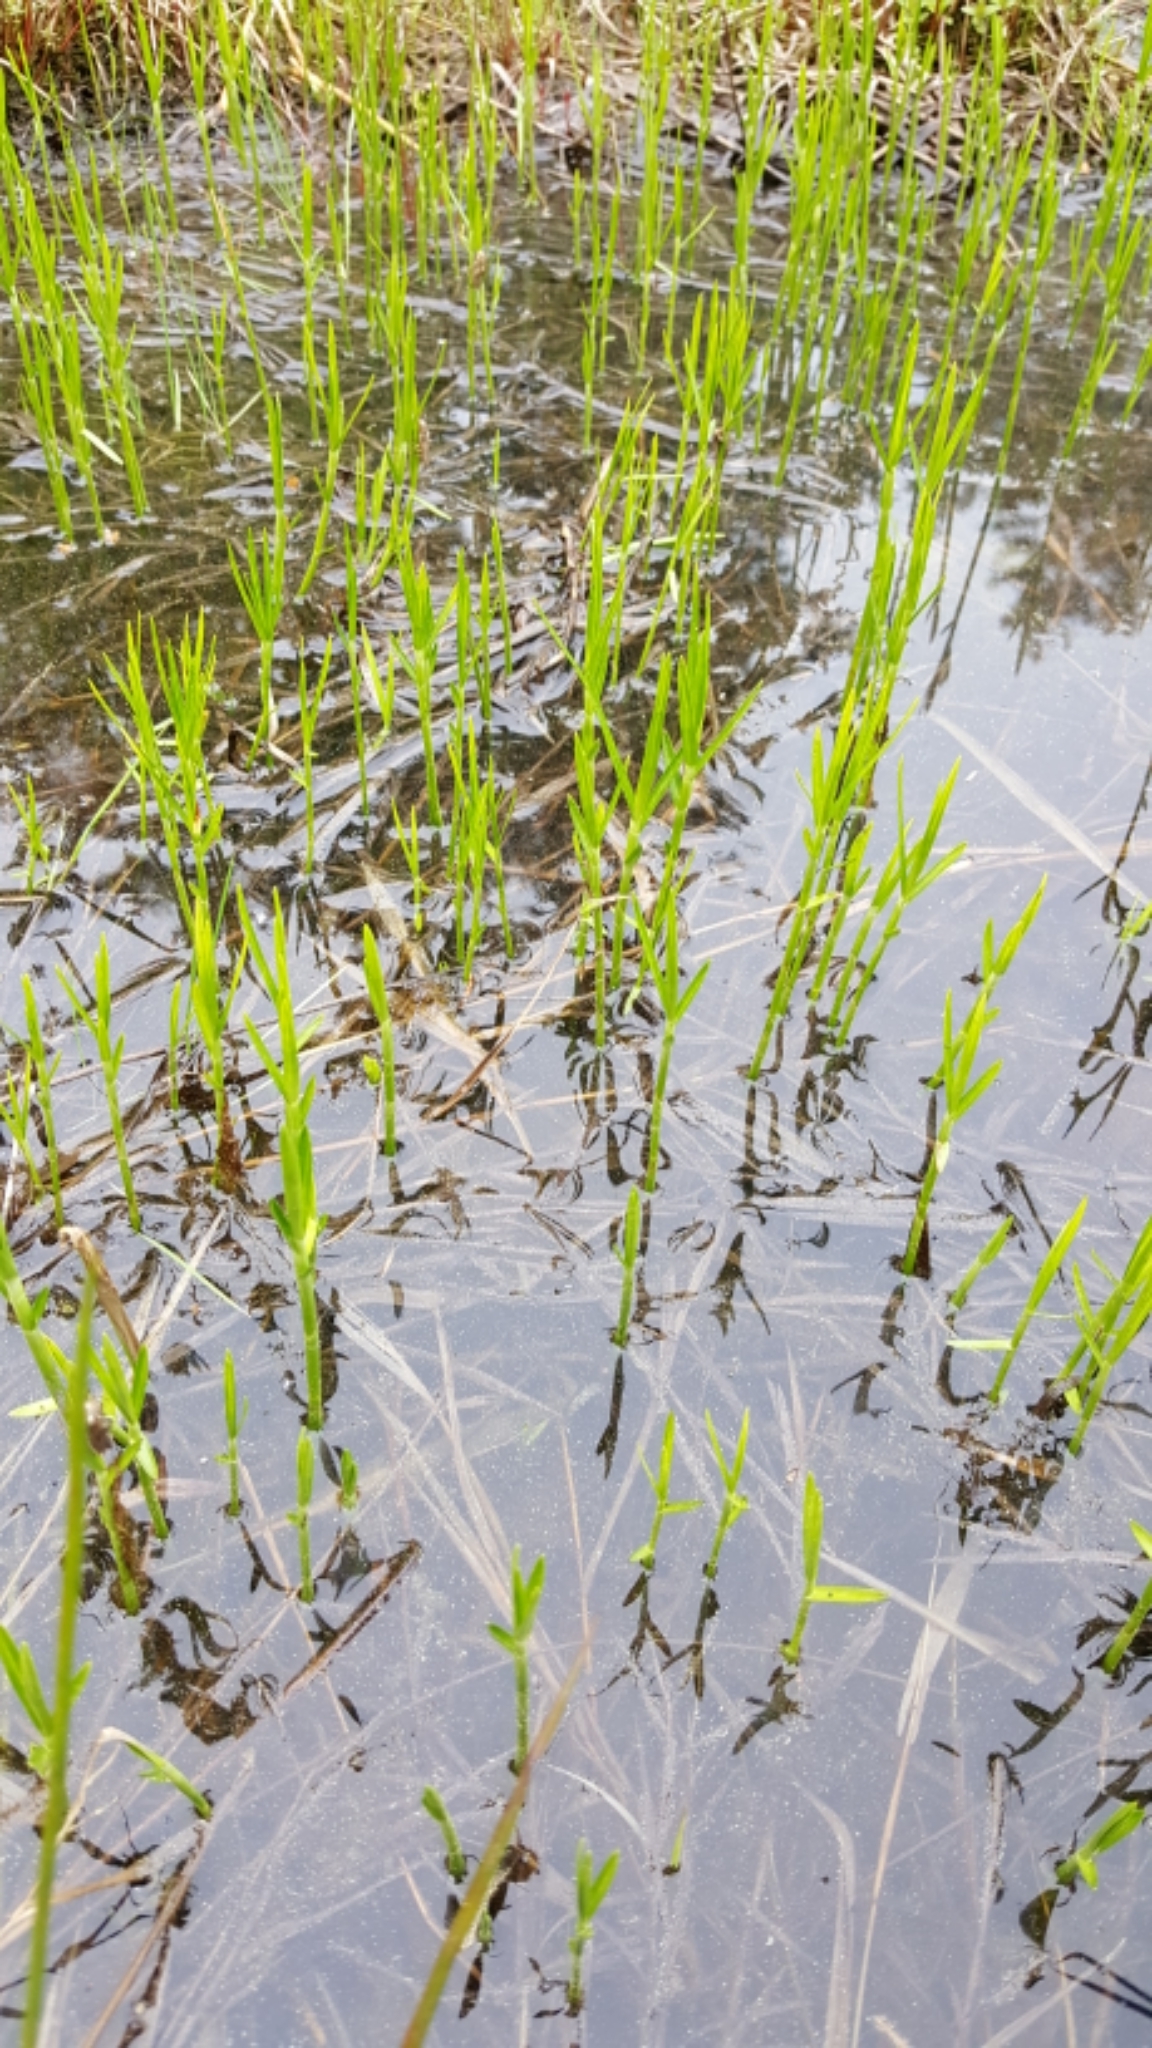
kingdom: Plantae
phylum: Tracheophyta
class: Liliopsida
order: Poales
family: Cyperaceae
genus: Dulichium
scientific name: Dulichium arundinaceum
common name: Three-way sedge
